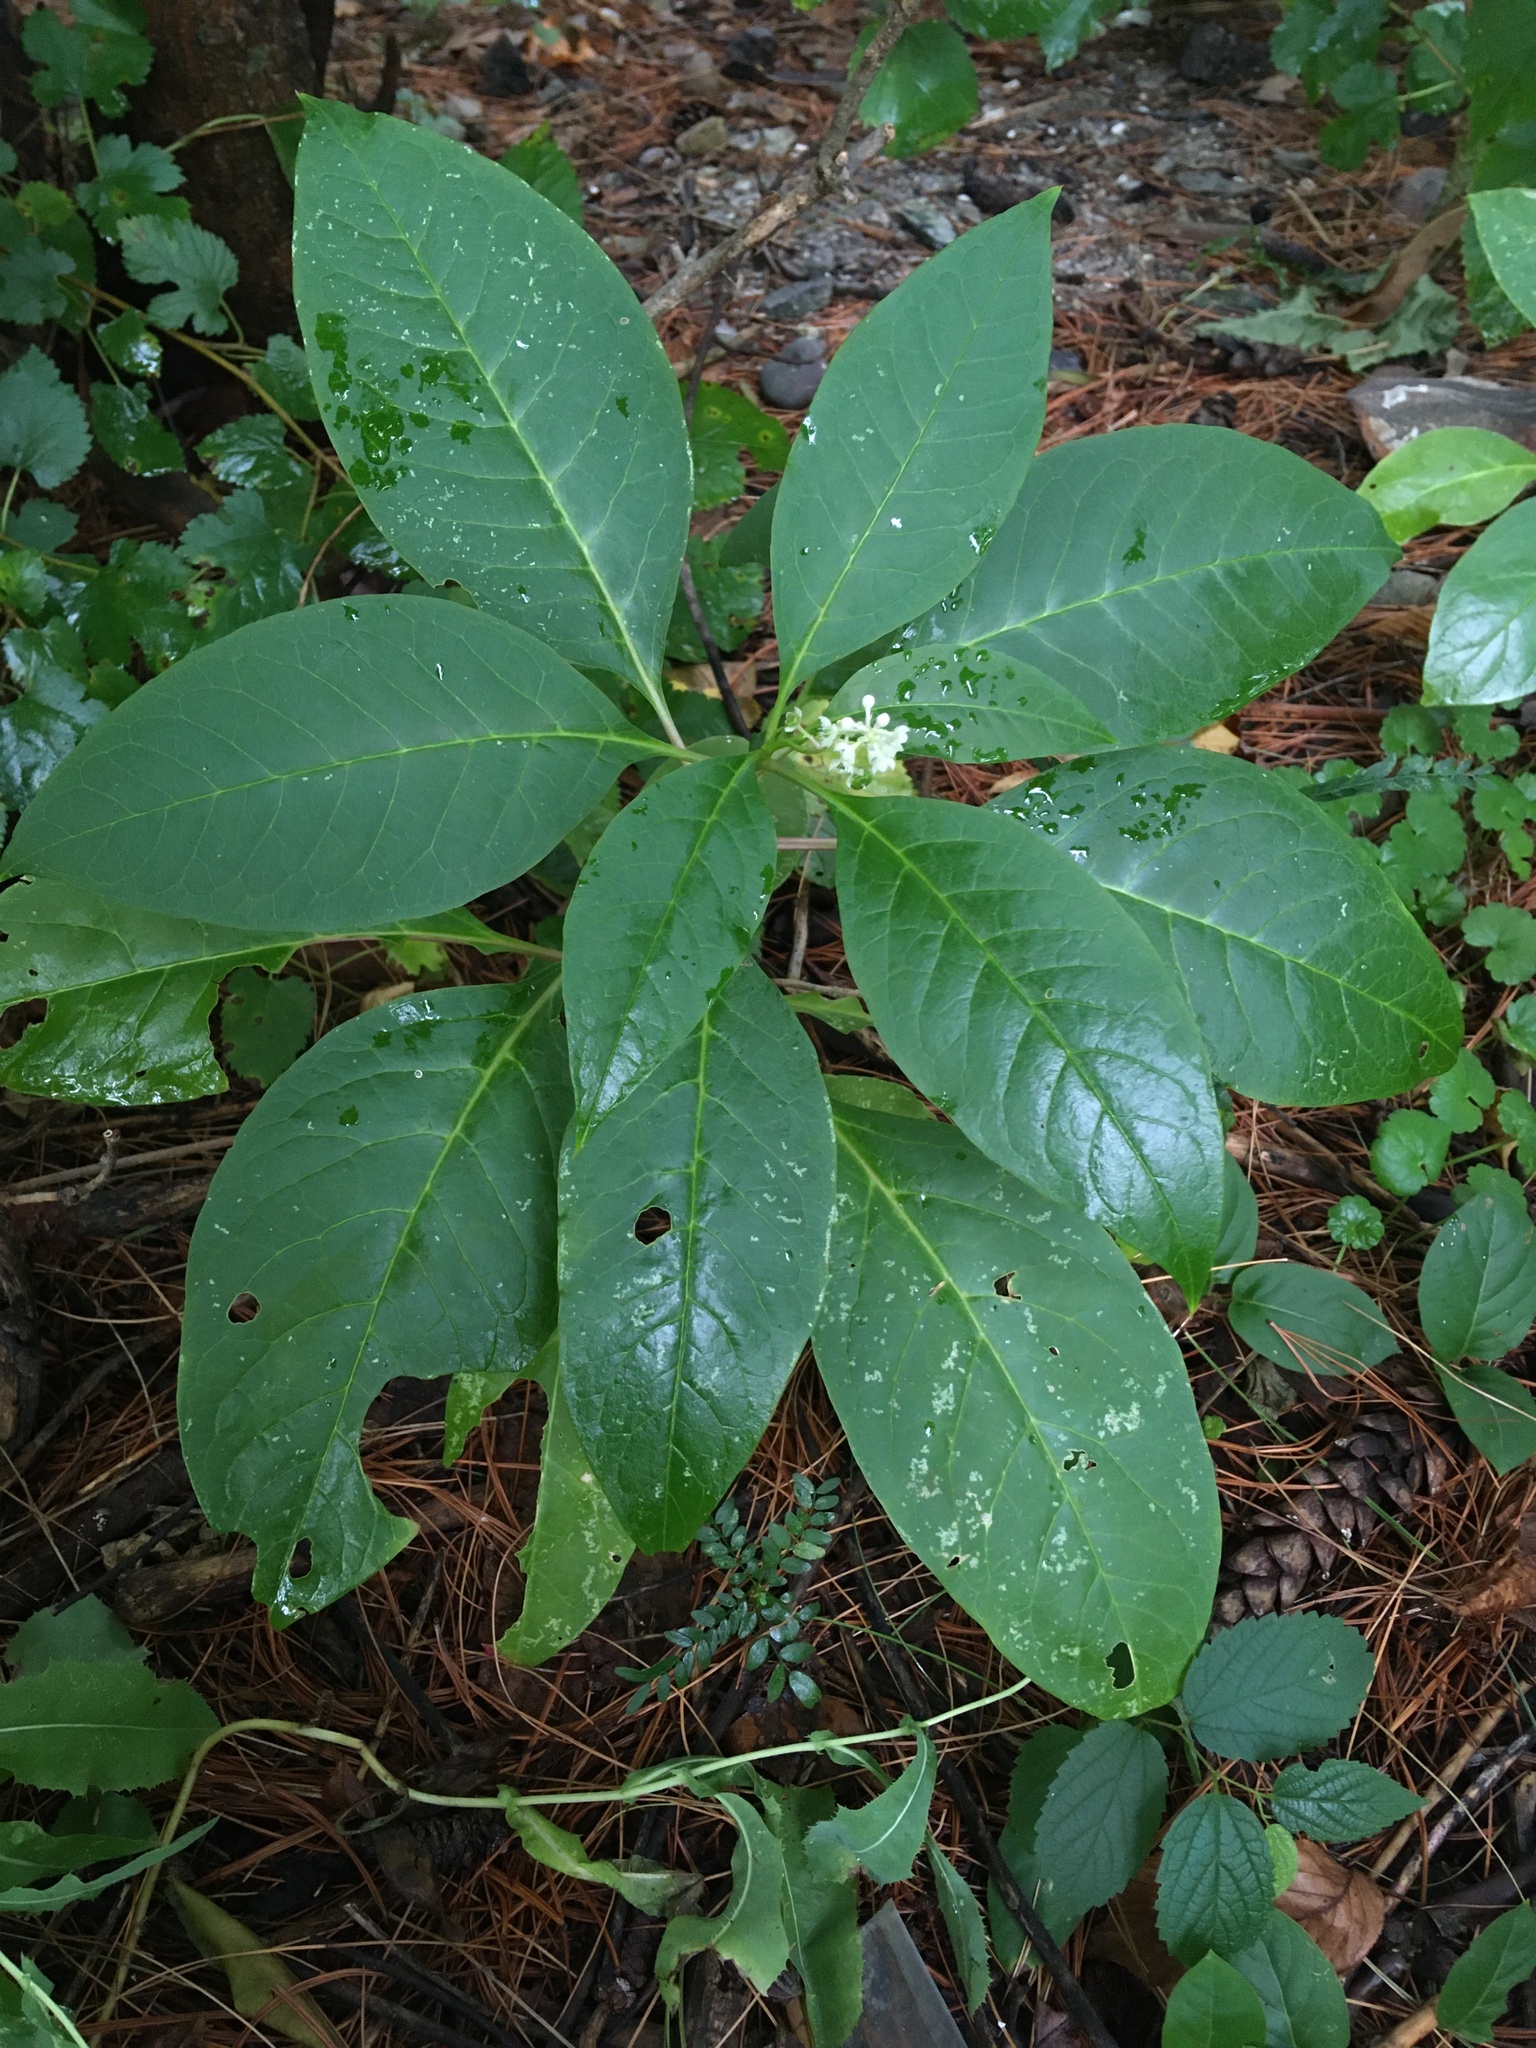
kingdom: Plantae
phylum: Tracheophyta
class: Magnoliopsida
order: Caryophyllales
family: Phytolaccaceae
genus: Phytolacca
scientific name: Phytolacca americana
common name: American pokeweed
